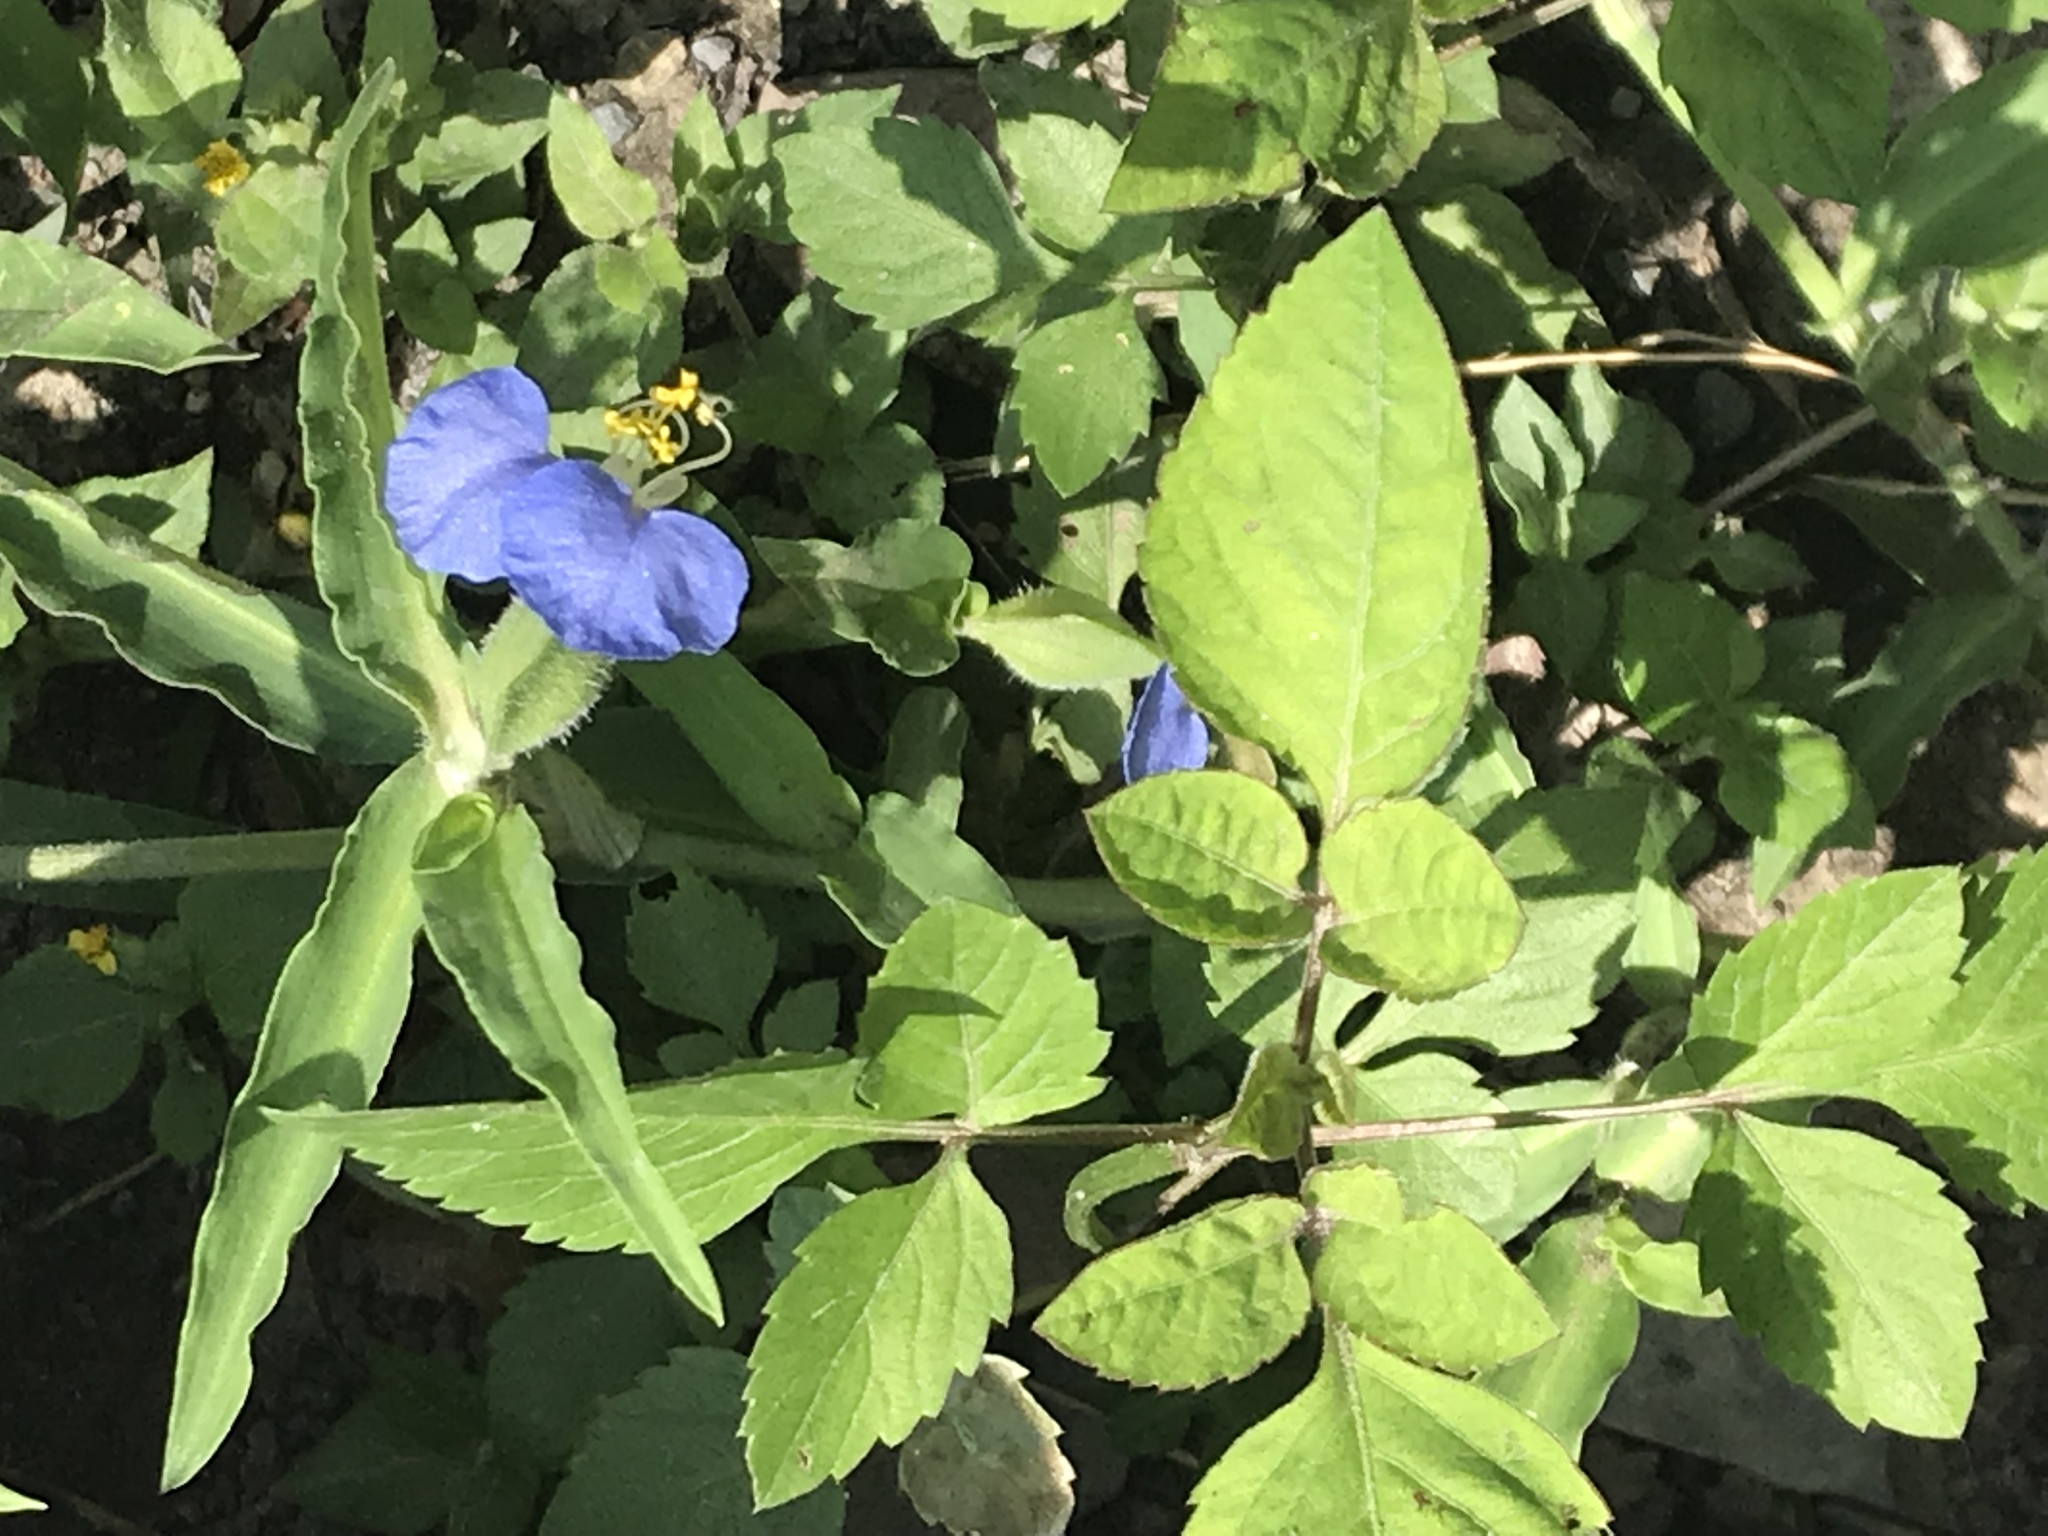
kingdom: Plantae
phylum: Tracheophyta
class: Liliopsida
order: Commelinales
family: Commelinaceae
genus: Commelina
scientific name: Commelina erecta
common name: Blousel blommetjie
